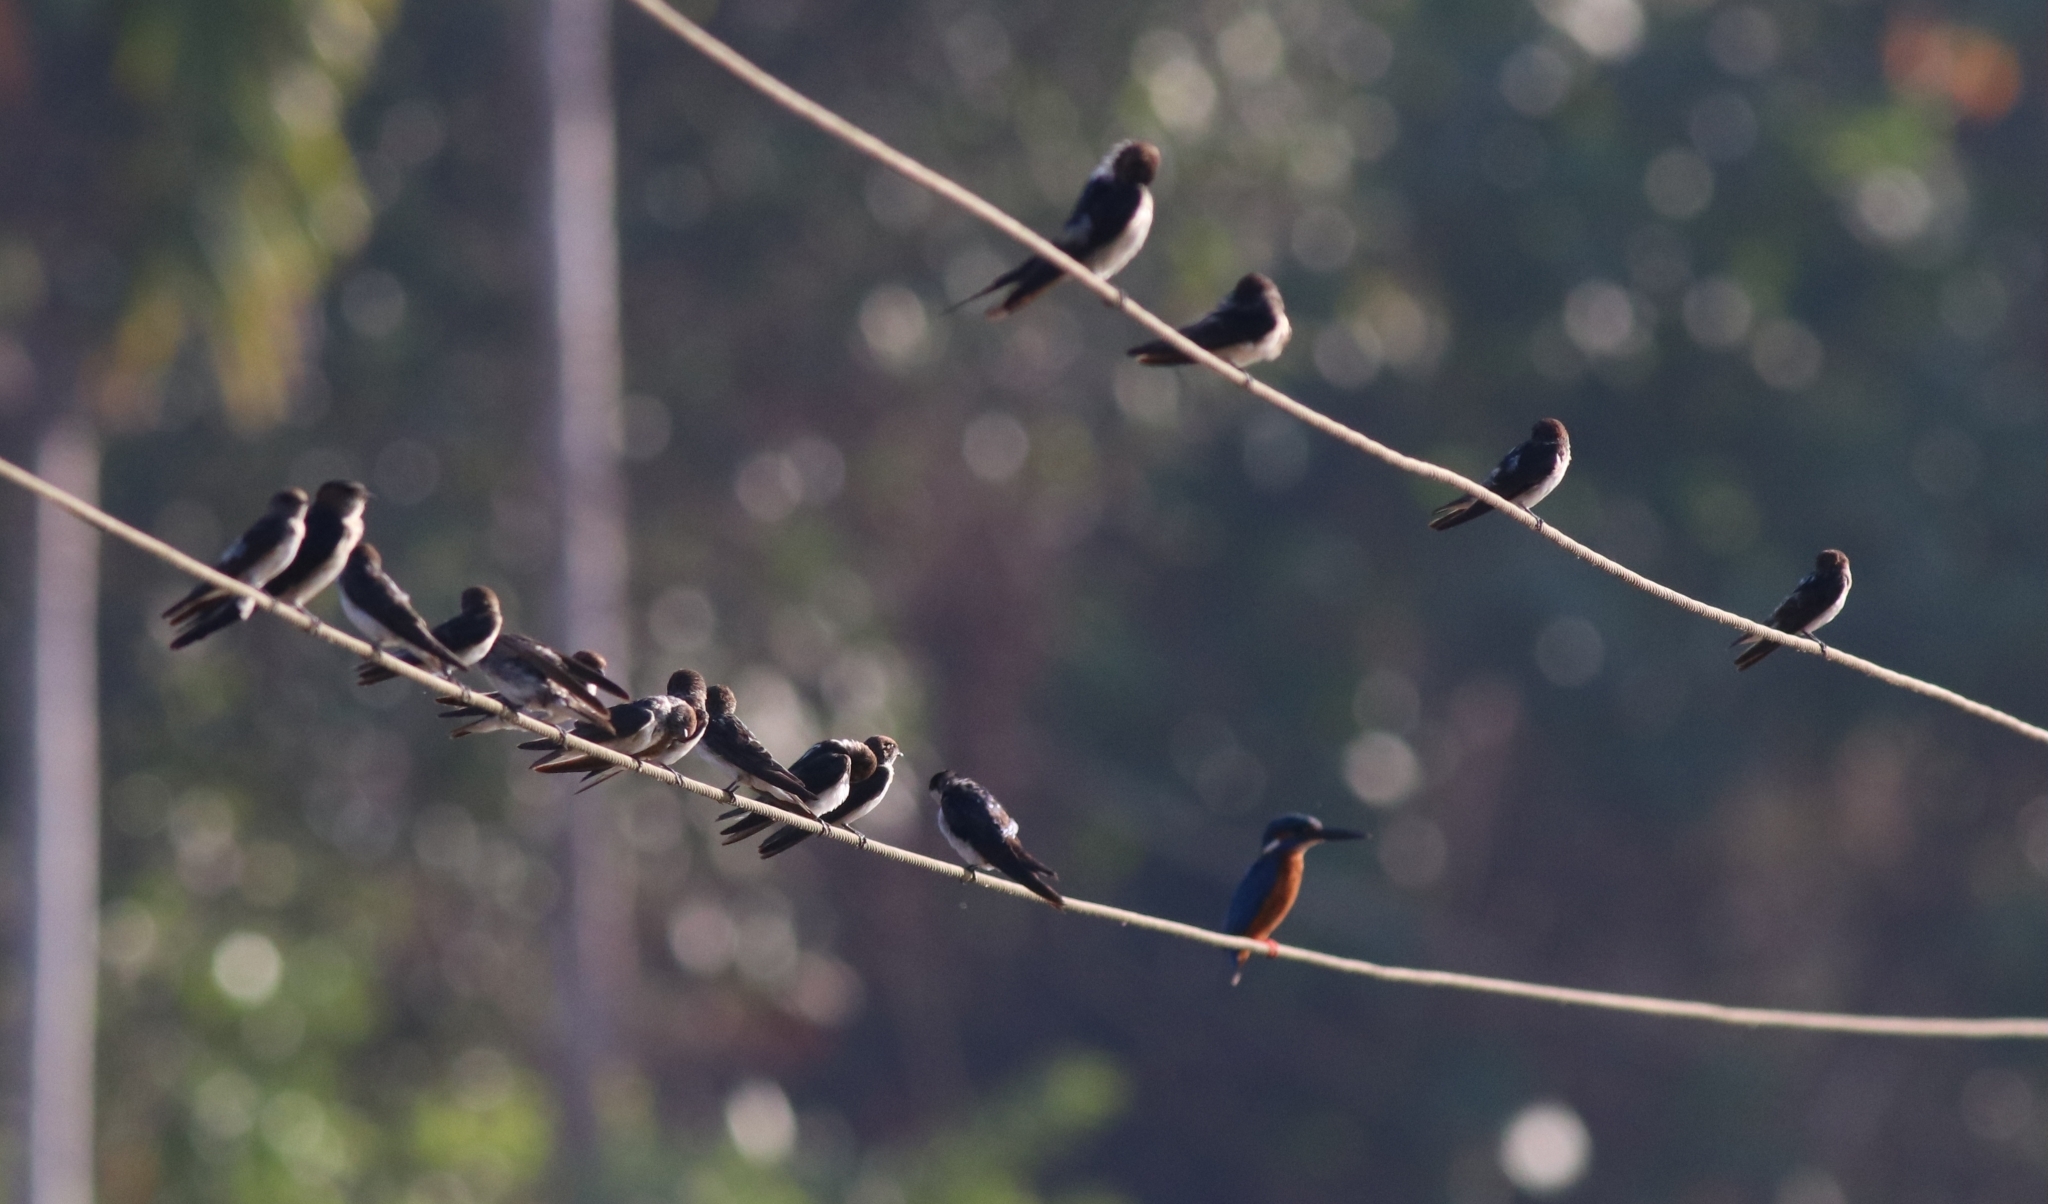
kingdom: Animalia
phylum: Chordata
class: Aves
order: Passeriformes
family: Hirundinidae
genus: Petrochelidon
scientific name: Petrochelidon fluvicola
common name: Streak-throated swallow
